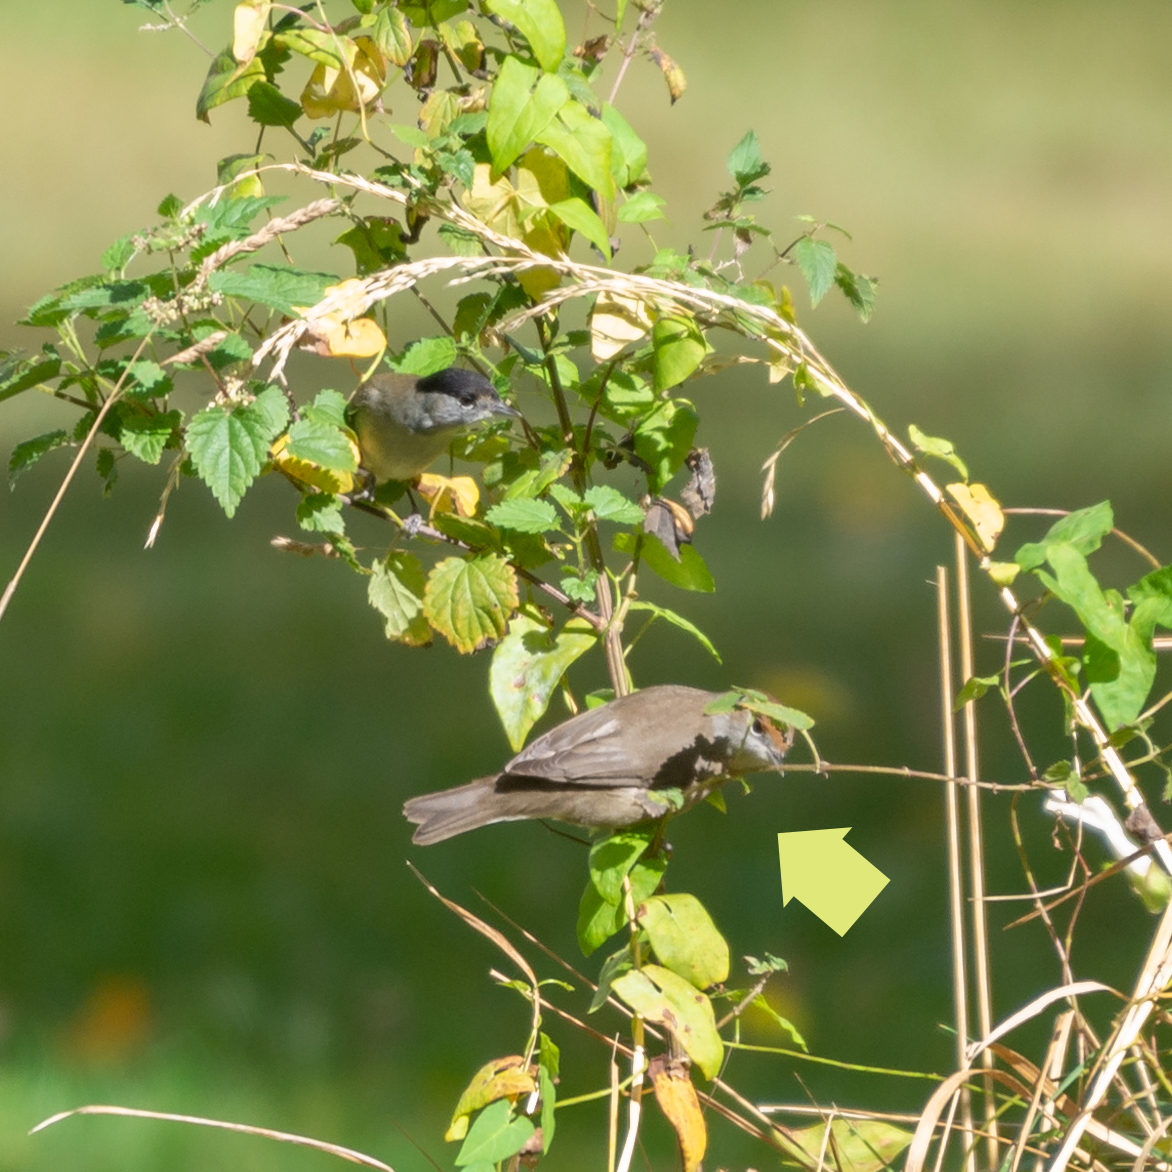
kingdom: Animalia
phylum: Chordata
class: Aves
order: Passeriformes
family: Sylviidae
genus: Sylvia
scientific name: Sylvia atricapilla
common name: Eurasian blackcap
